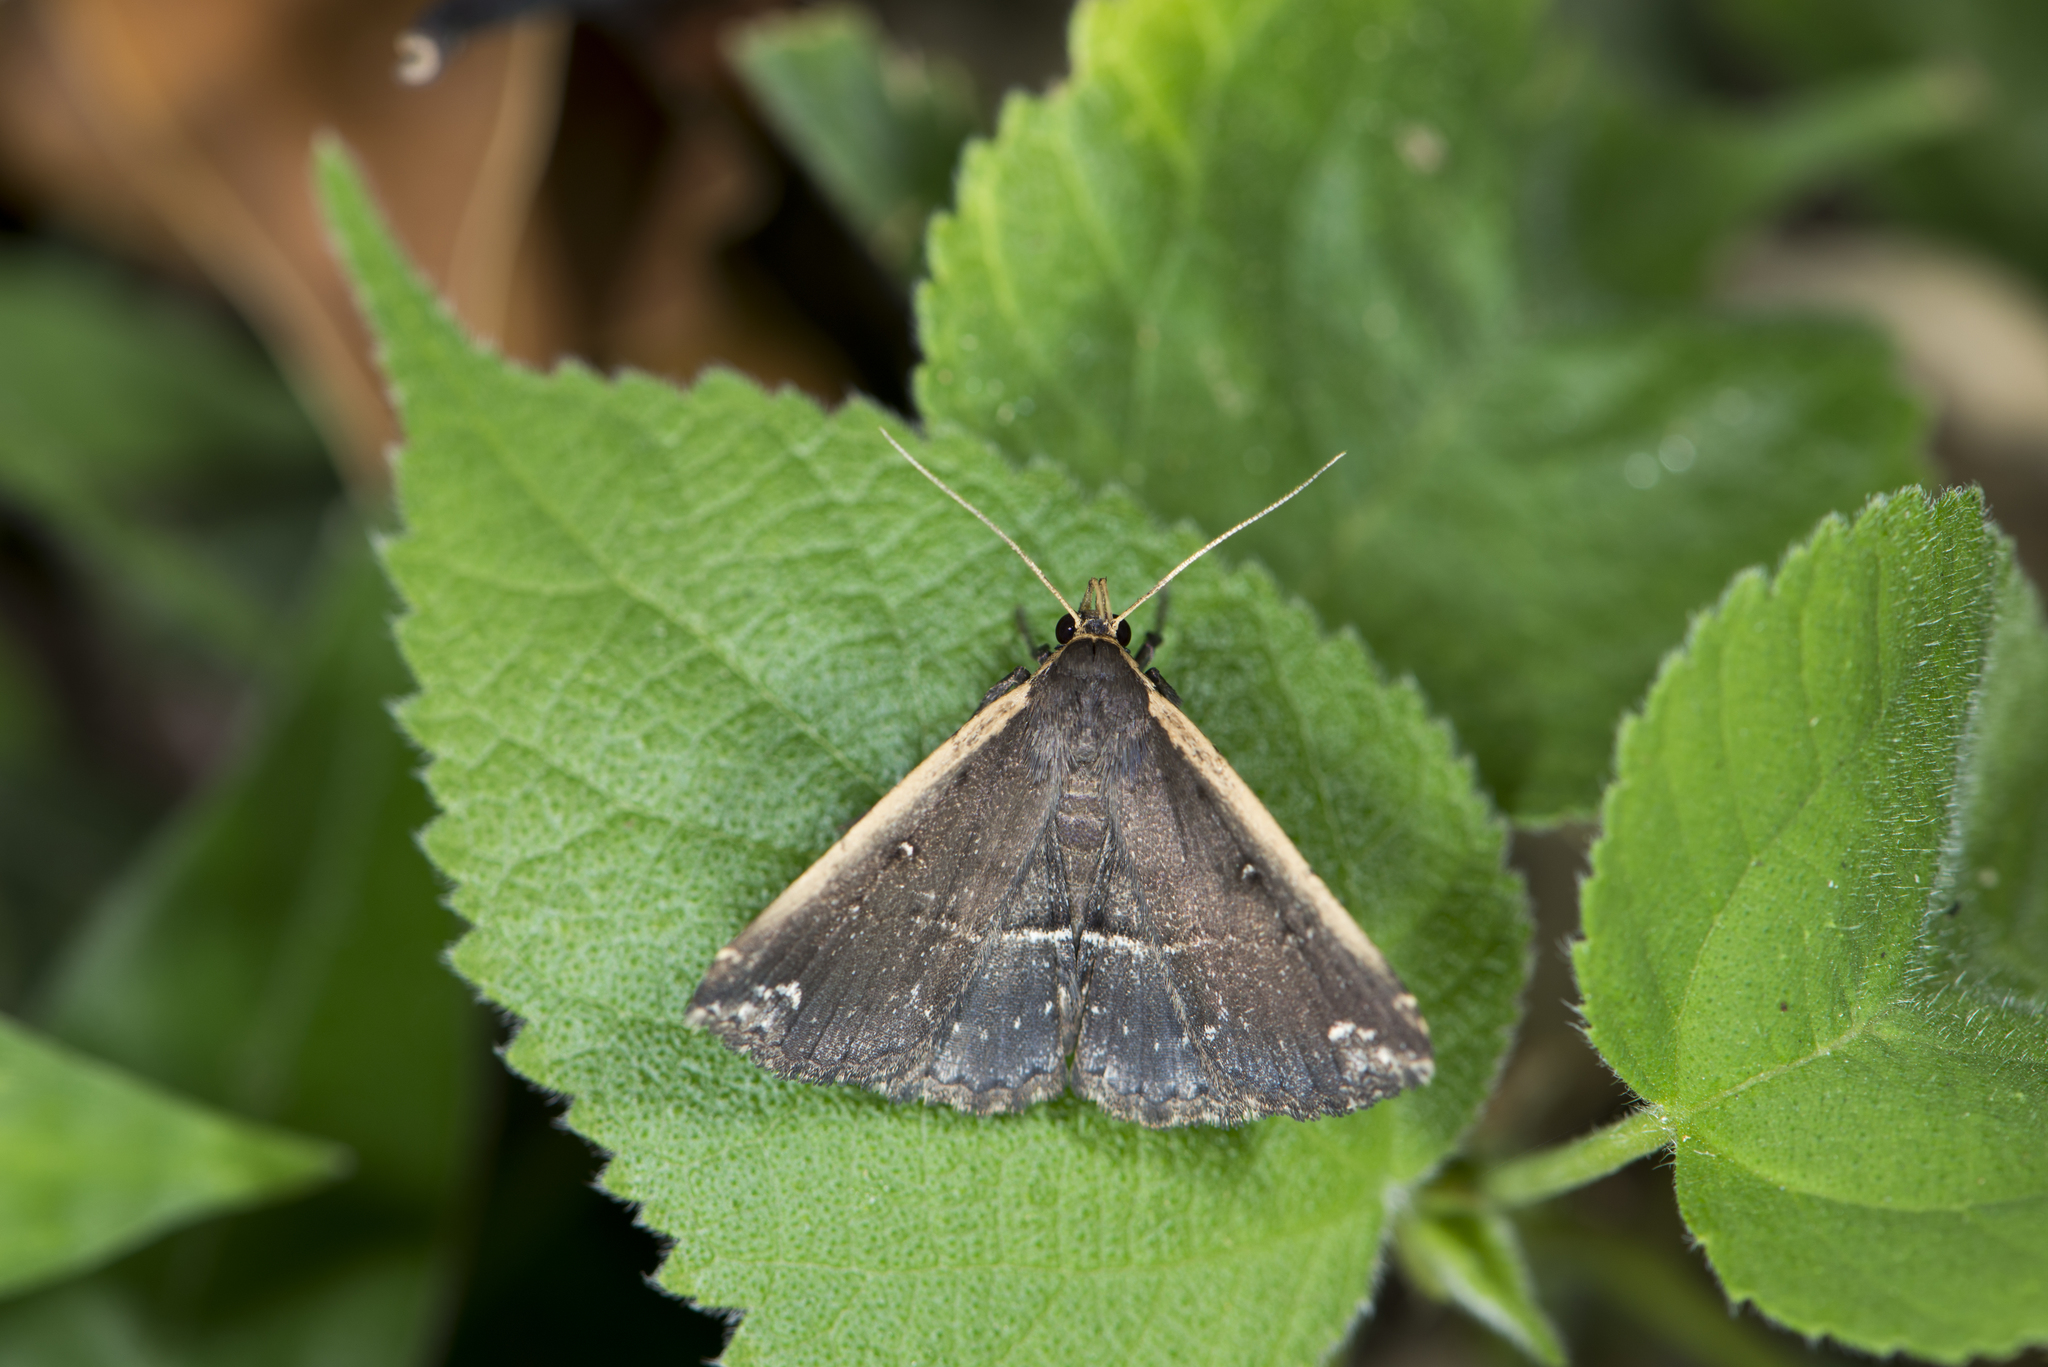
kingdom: Animalia
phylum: Arthropoda
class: Insecta
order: Lepidoptera
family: Erebidae
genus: Adrapsa
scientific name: Adrapsa ablualis
